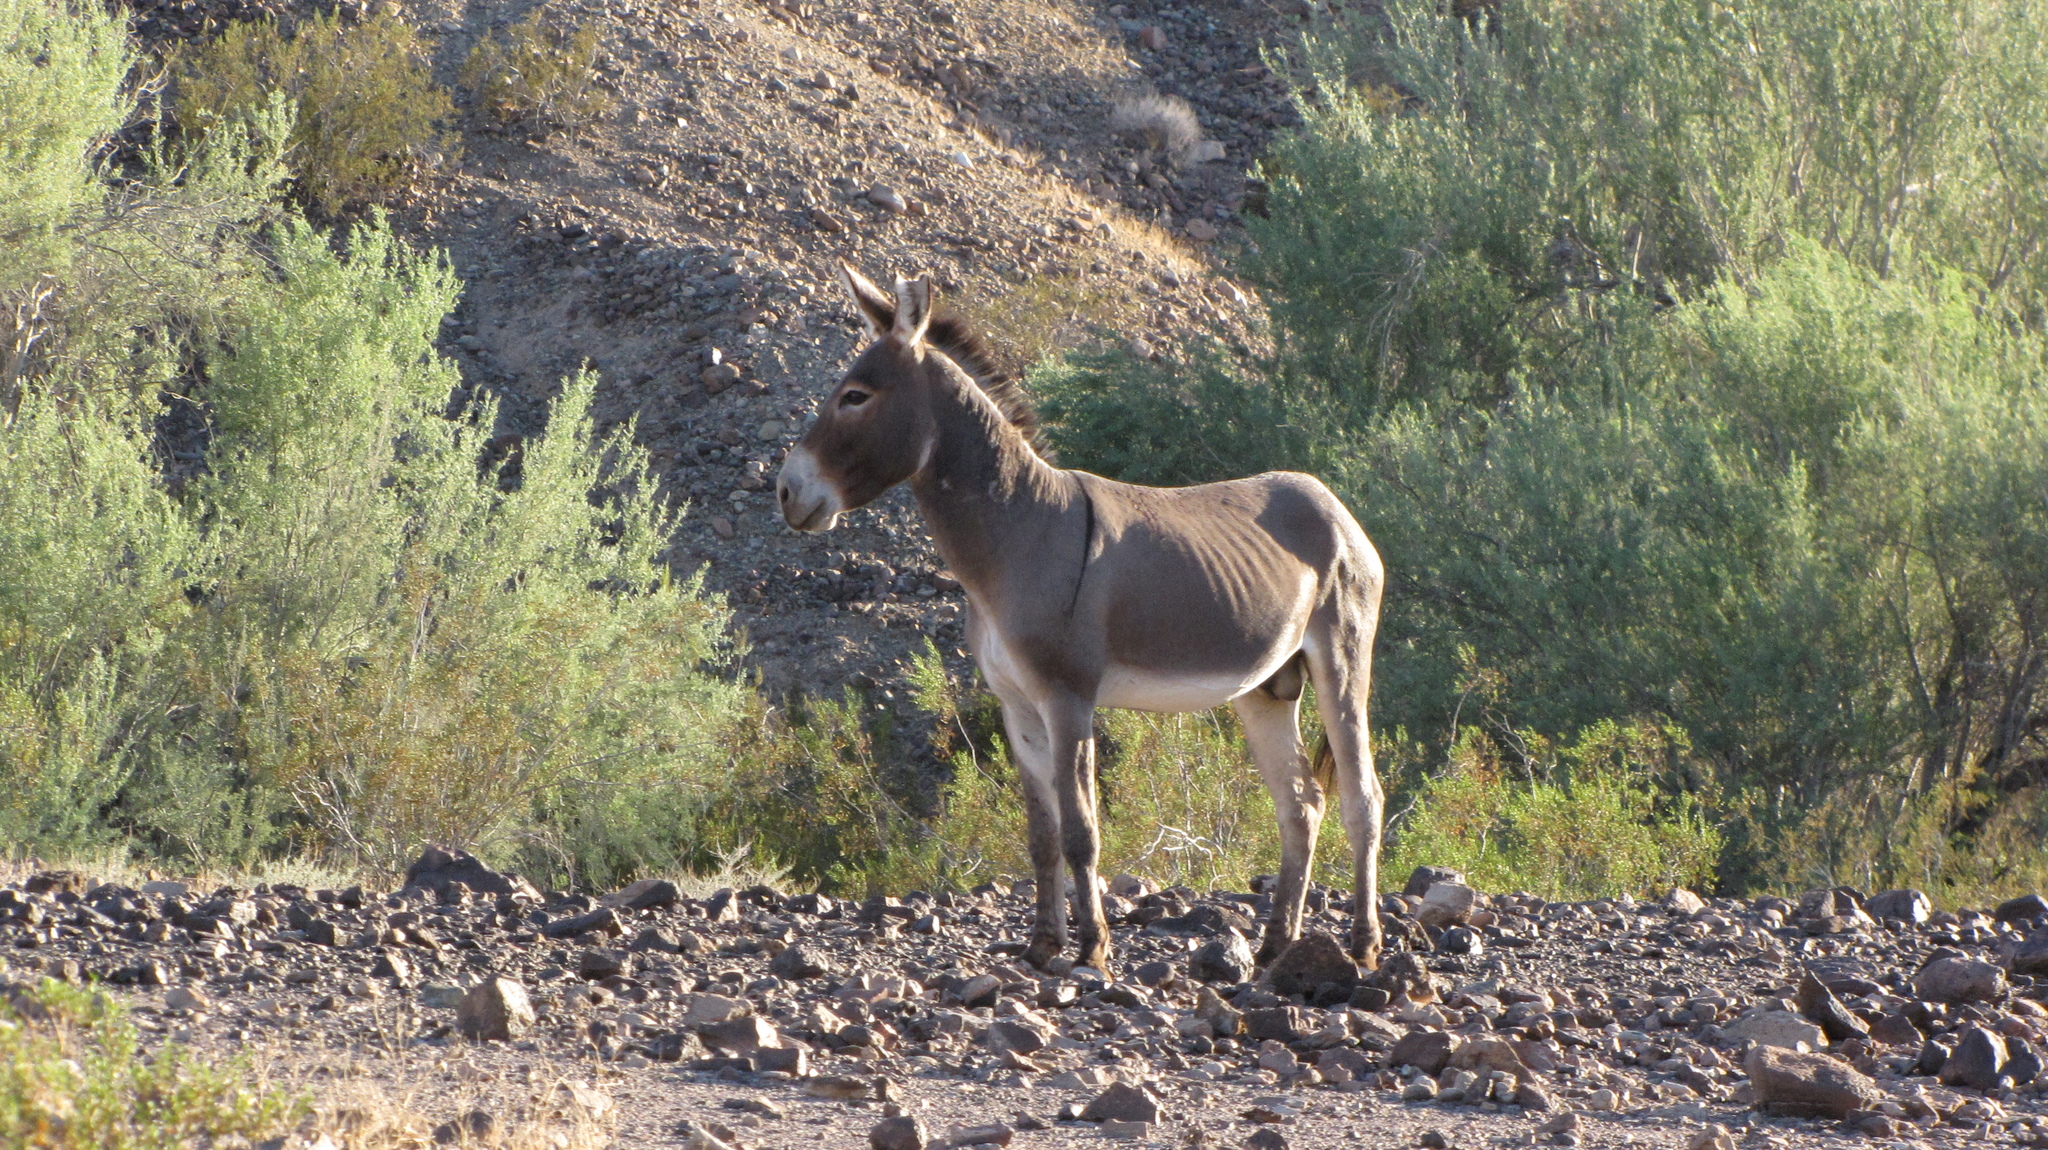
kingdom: Animalia
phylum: Chordata
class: Mammalia
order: Perissodactyla
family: Equidae
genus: Equus
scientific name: Equus asinus
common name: Ass
